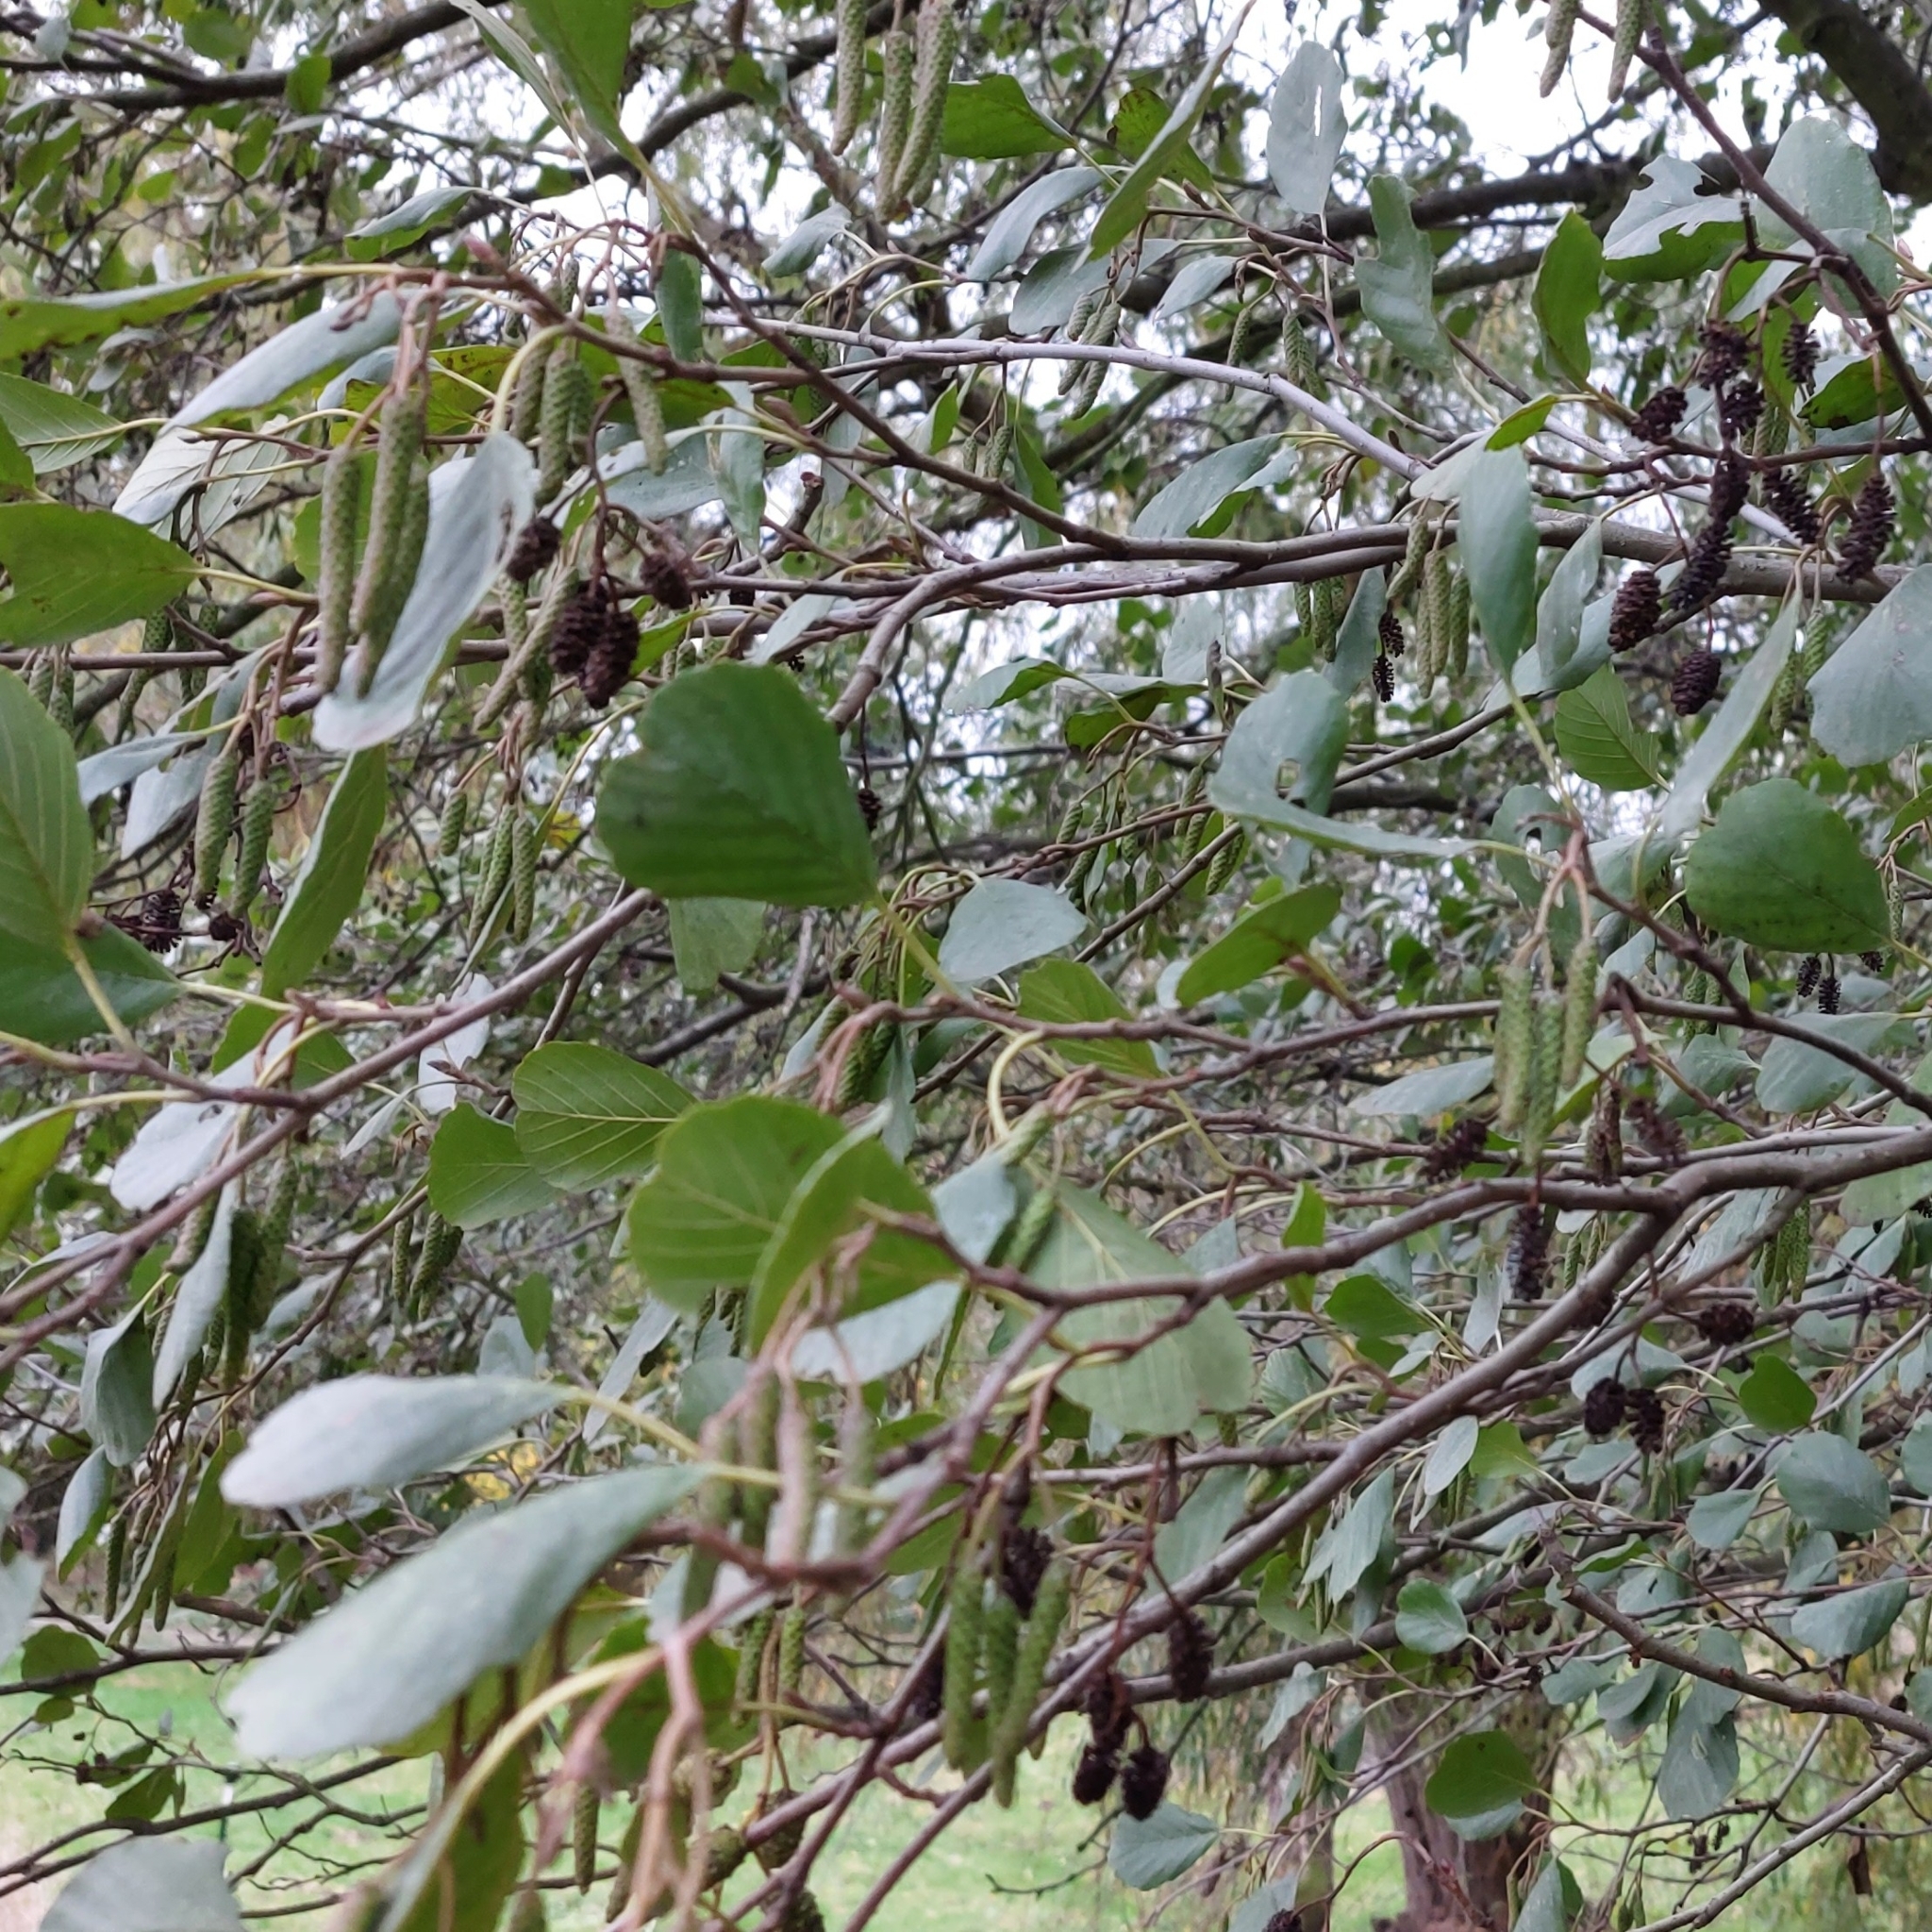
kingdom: Plantae
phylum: Tracheophyta
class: Magnoliopsida
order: Fagales
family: Betulaceae
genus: Alnus
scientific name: Alnus glutinosa
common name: Black alder
